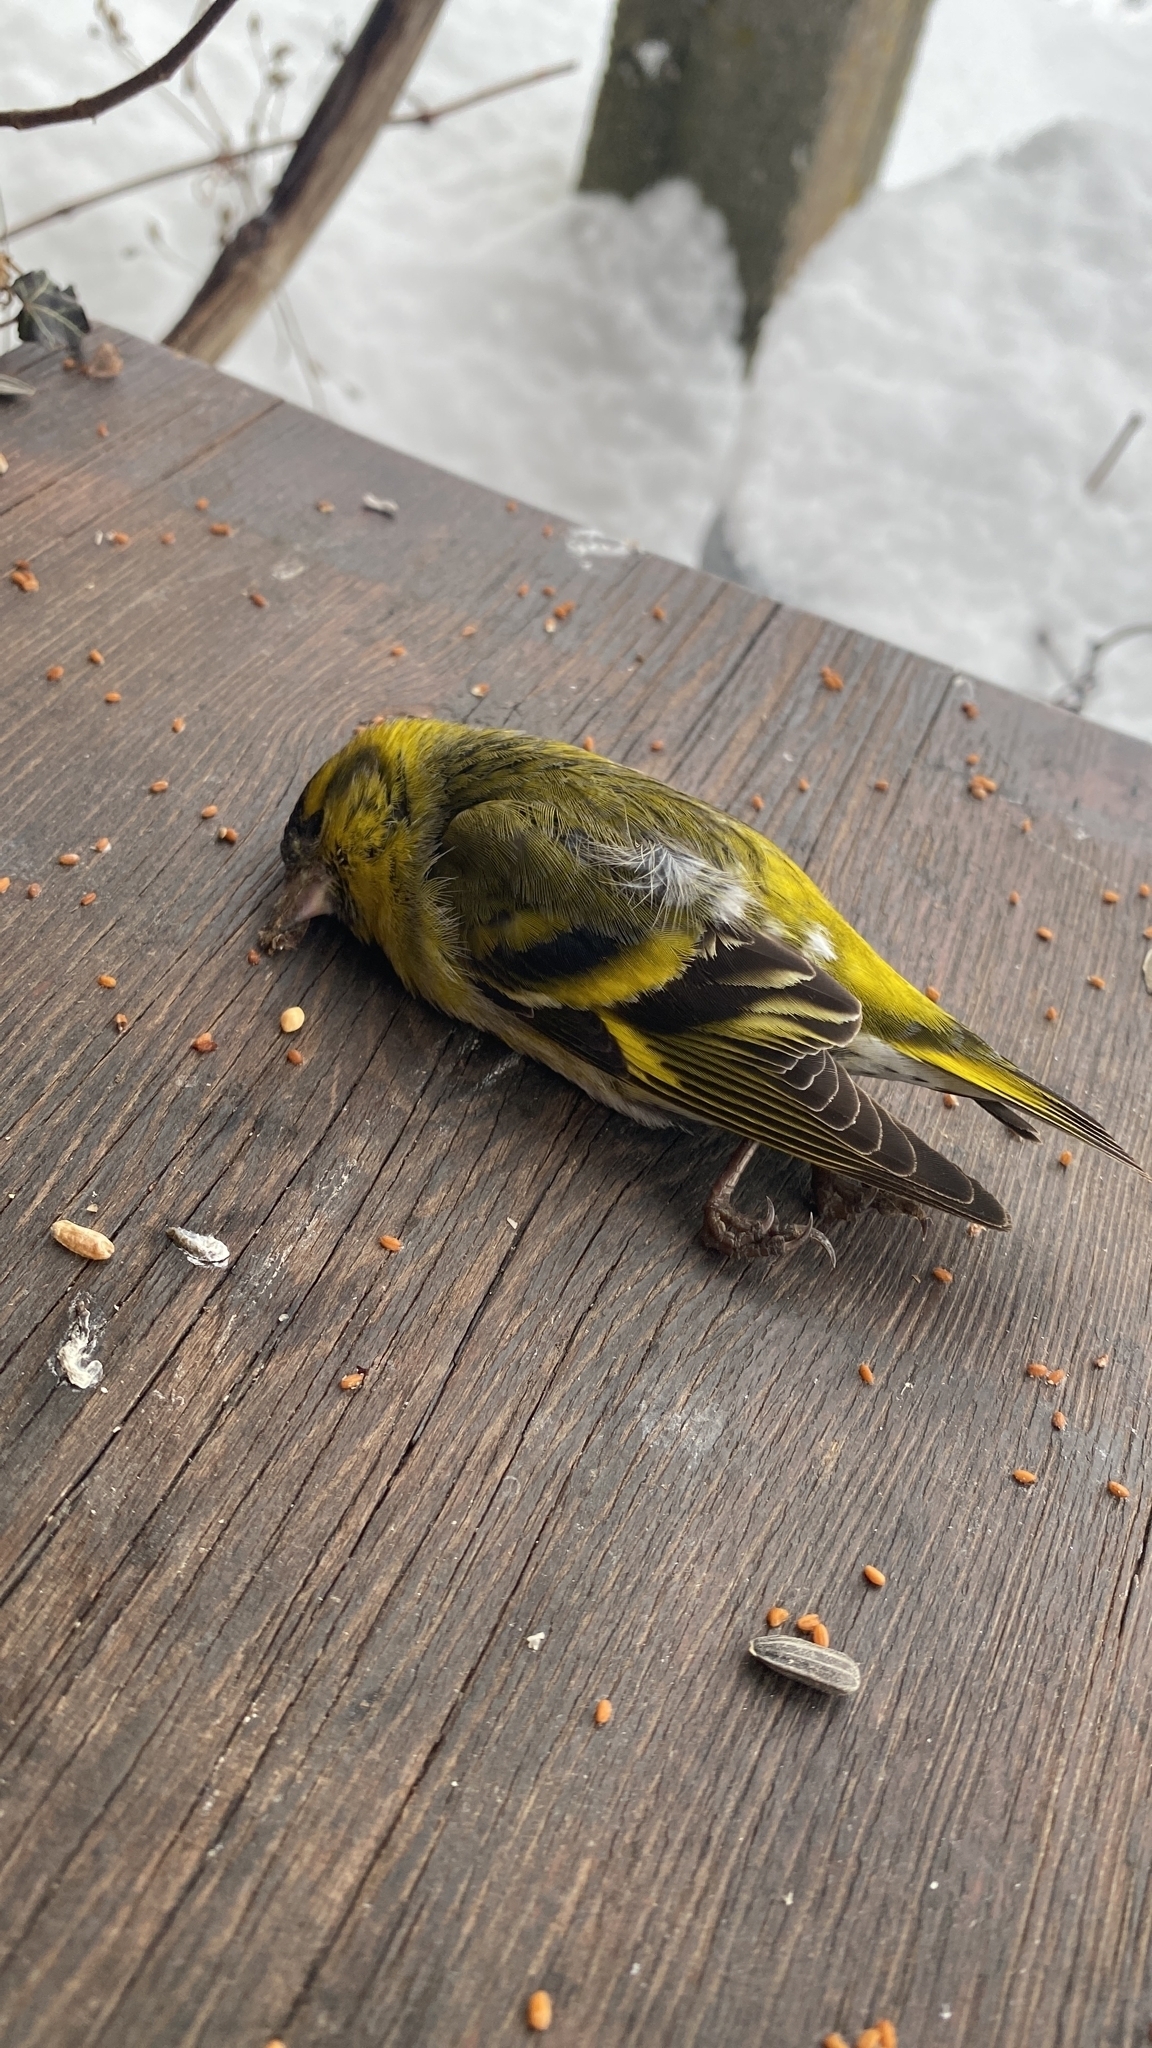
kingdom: Animalia
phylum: Chordata
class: Aves
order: Passeriformes
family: Fringillidae
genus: Spinus
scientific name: Spinus spinus
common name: Eurasian siskin
